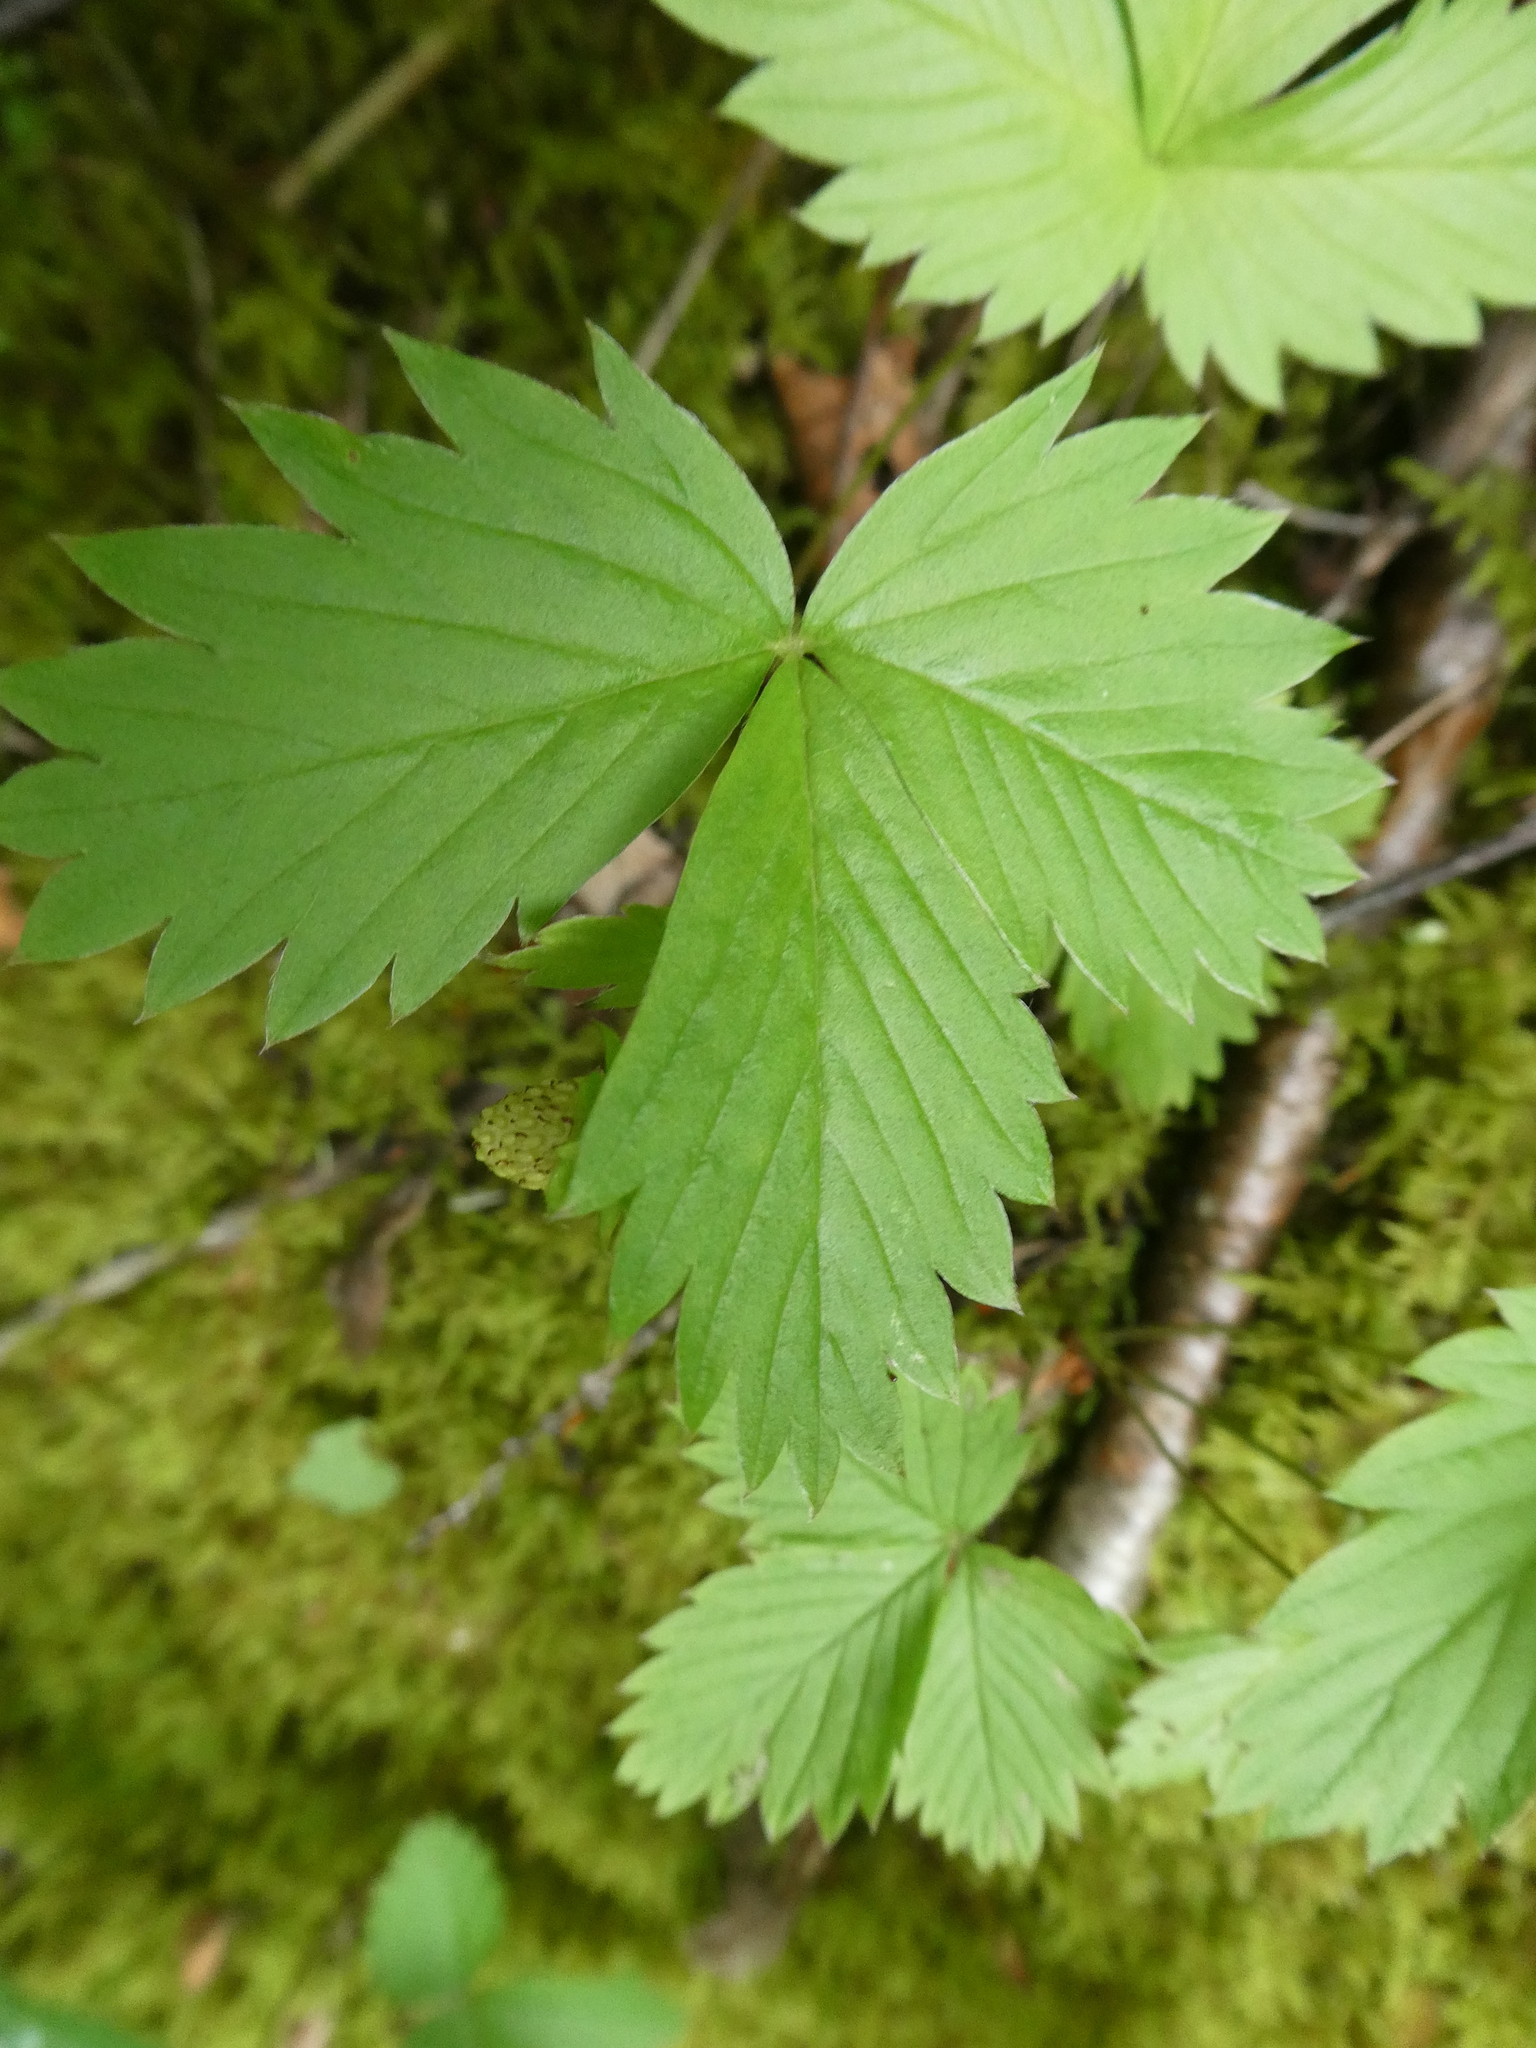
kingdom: Plantae
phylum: Tracheophyta
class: Magnoliopsida
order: Rosales
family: Rosaceae
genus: Fragaria
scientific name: Fragaria vesca
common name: Wild strawberry
